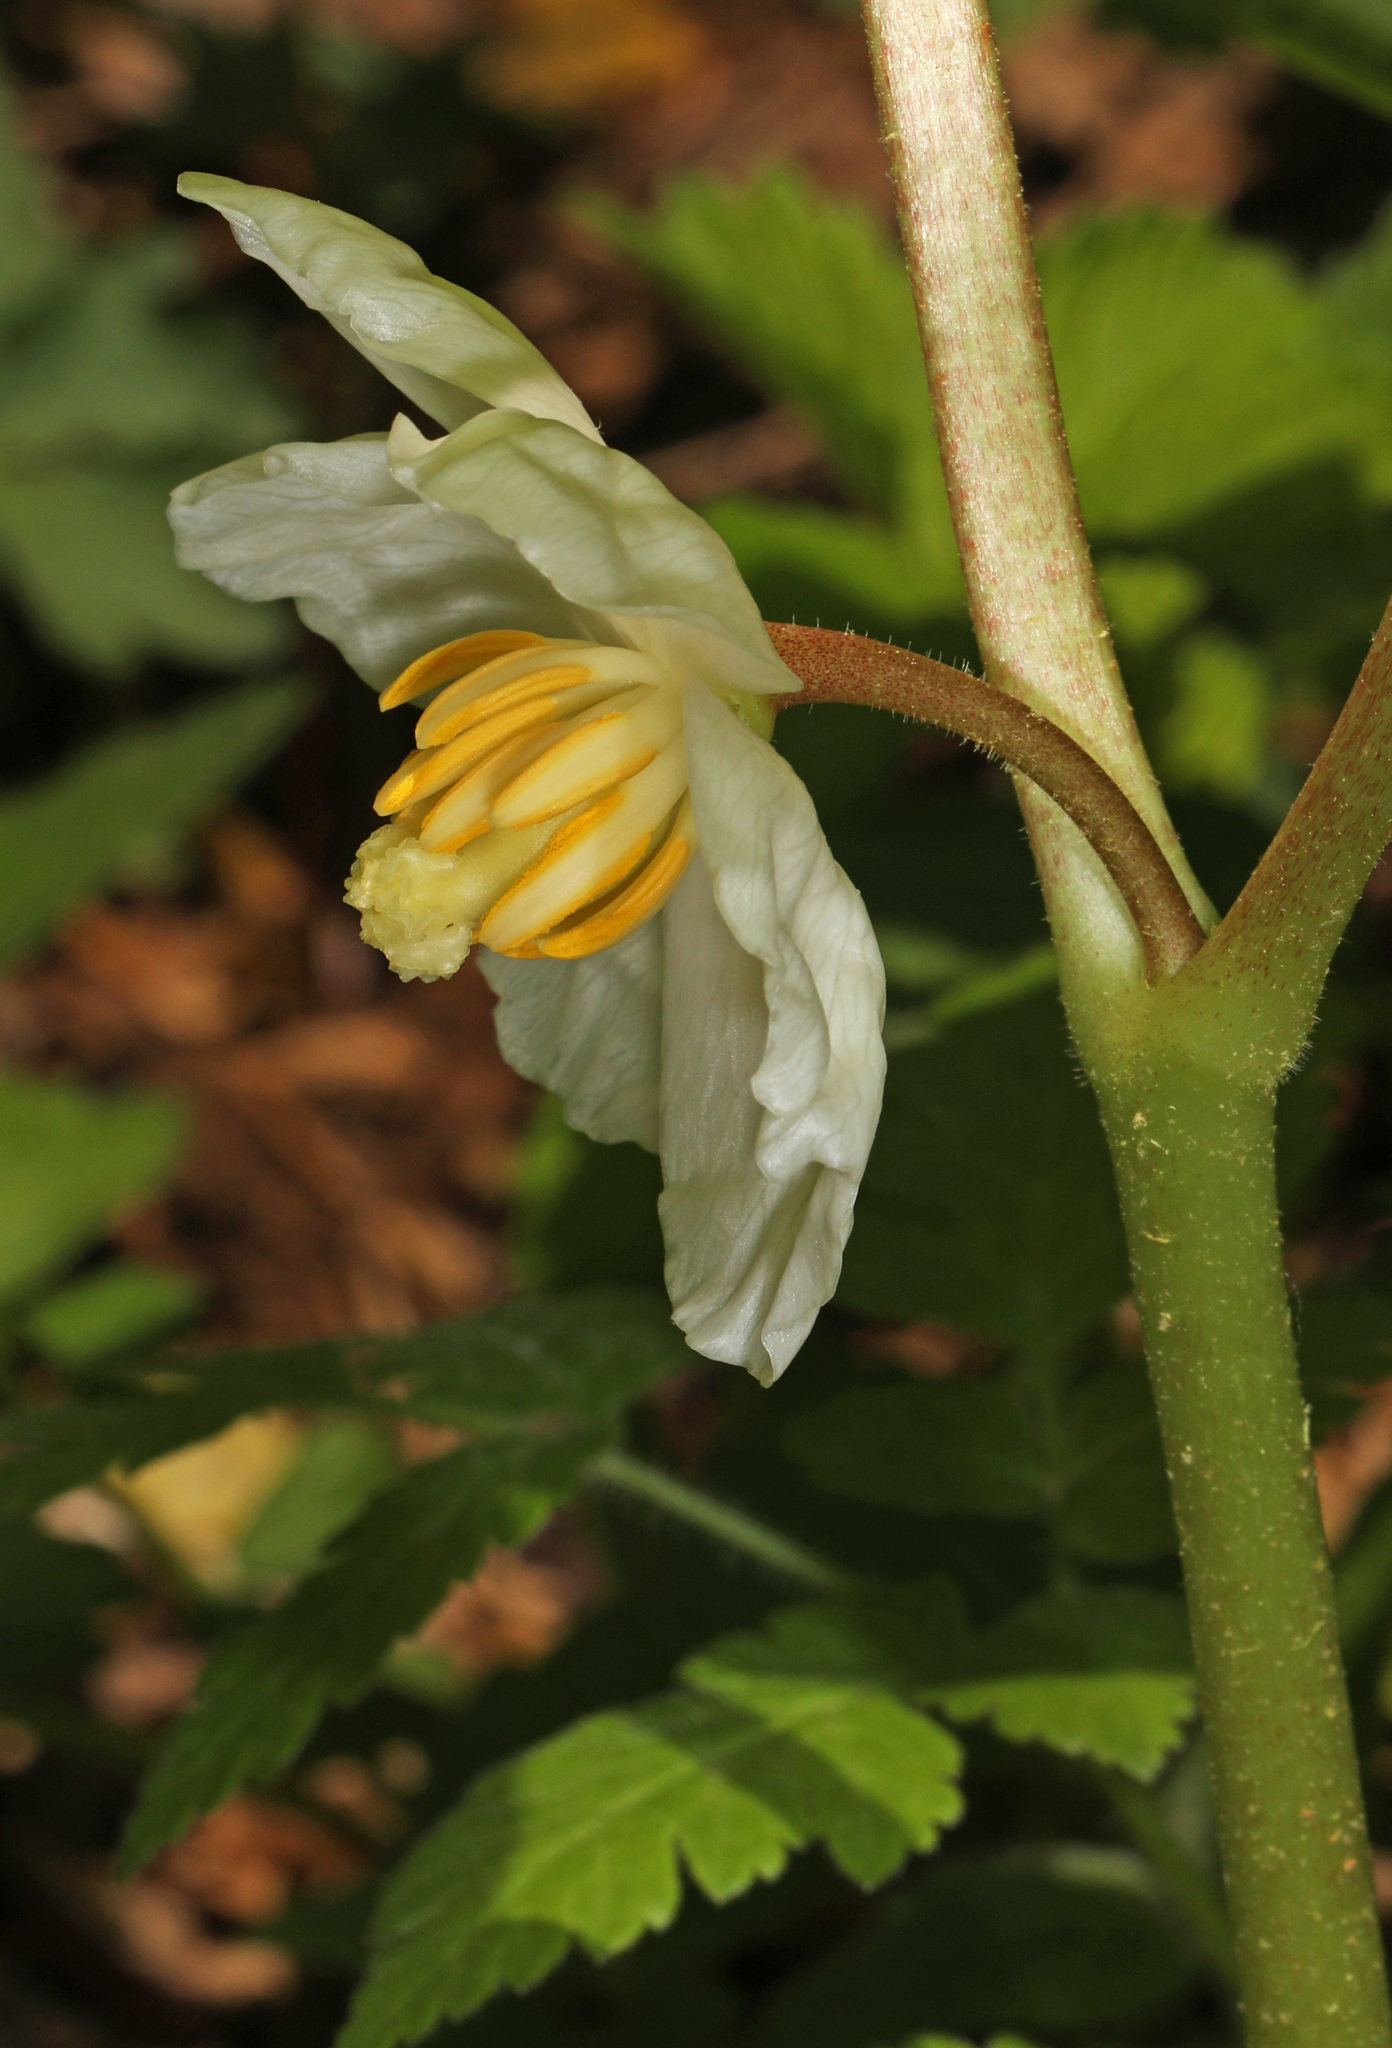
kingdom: Plantae
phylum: Tracheophyta
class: Magnoliopsida
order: Ranunculales
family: Berberidaceae
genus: Podophyllum
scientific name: Podophyllum peltatum
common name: Wild mandrake
